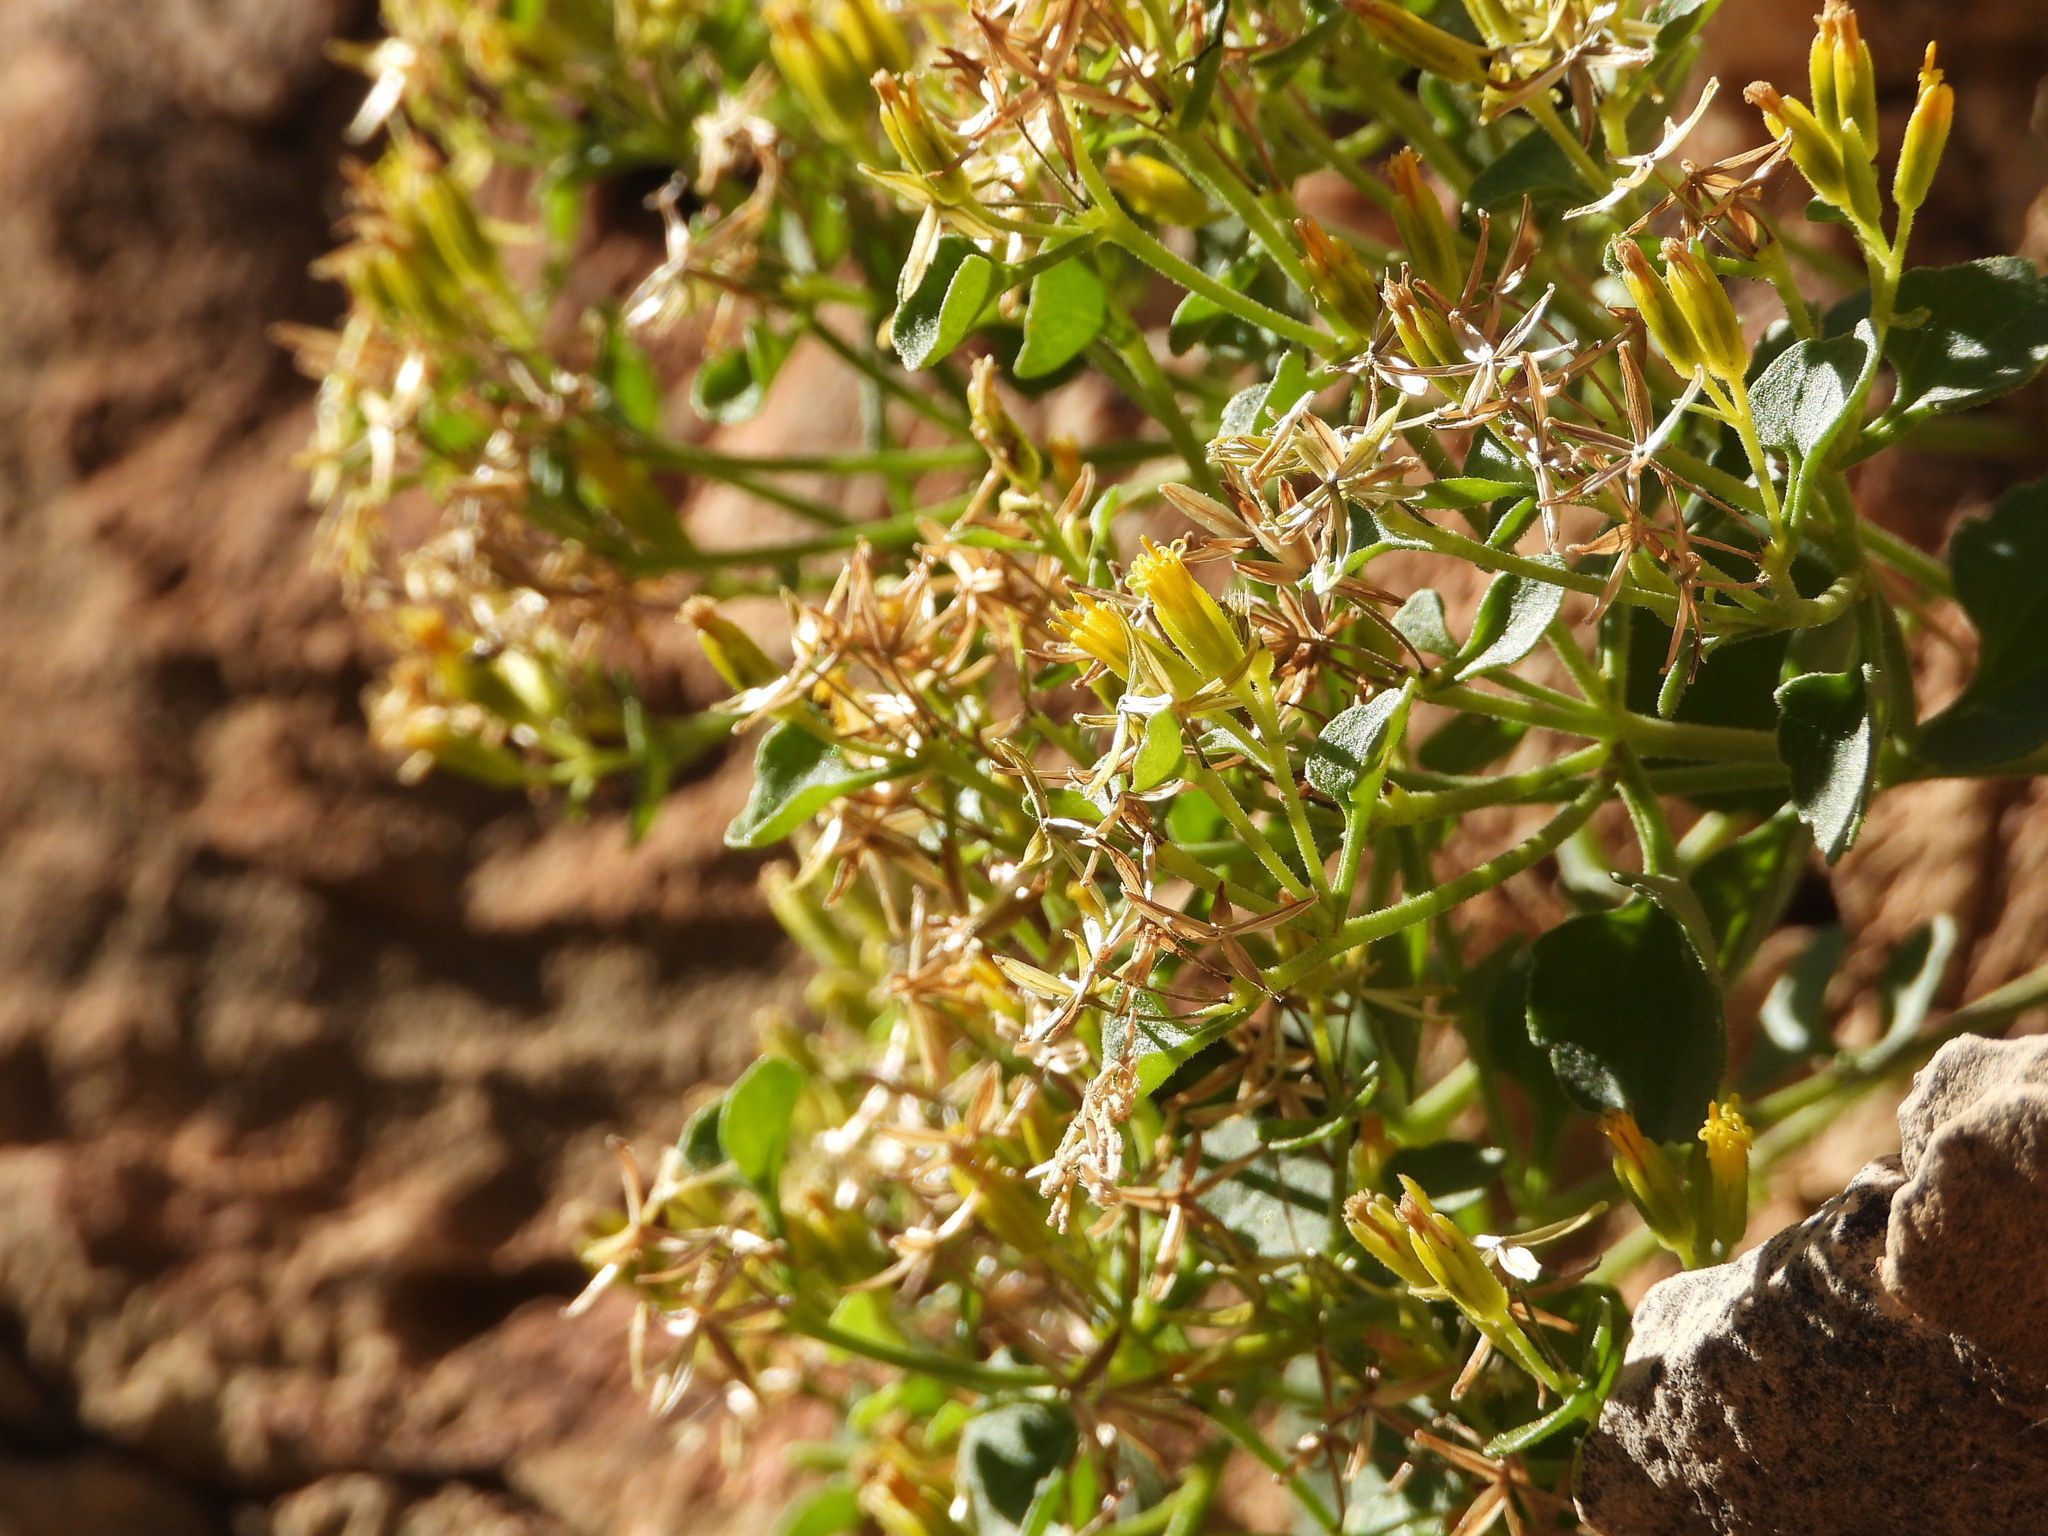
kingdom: Plantae
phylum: Tracheophyta
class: Magnoliopsida
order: Asterales
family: Asteraceae
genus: Laphamia
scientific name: Laphamia quinqueflora
